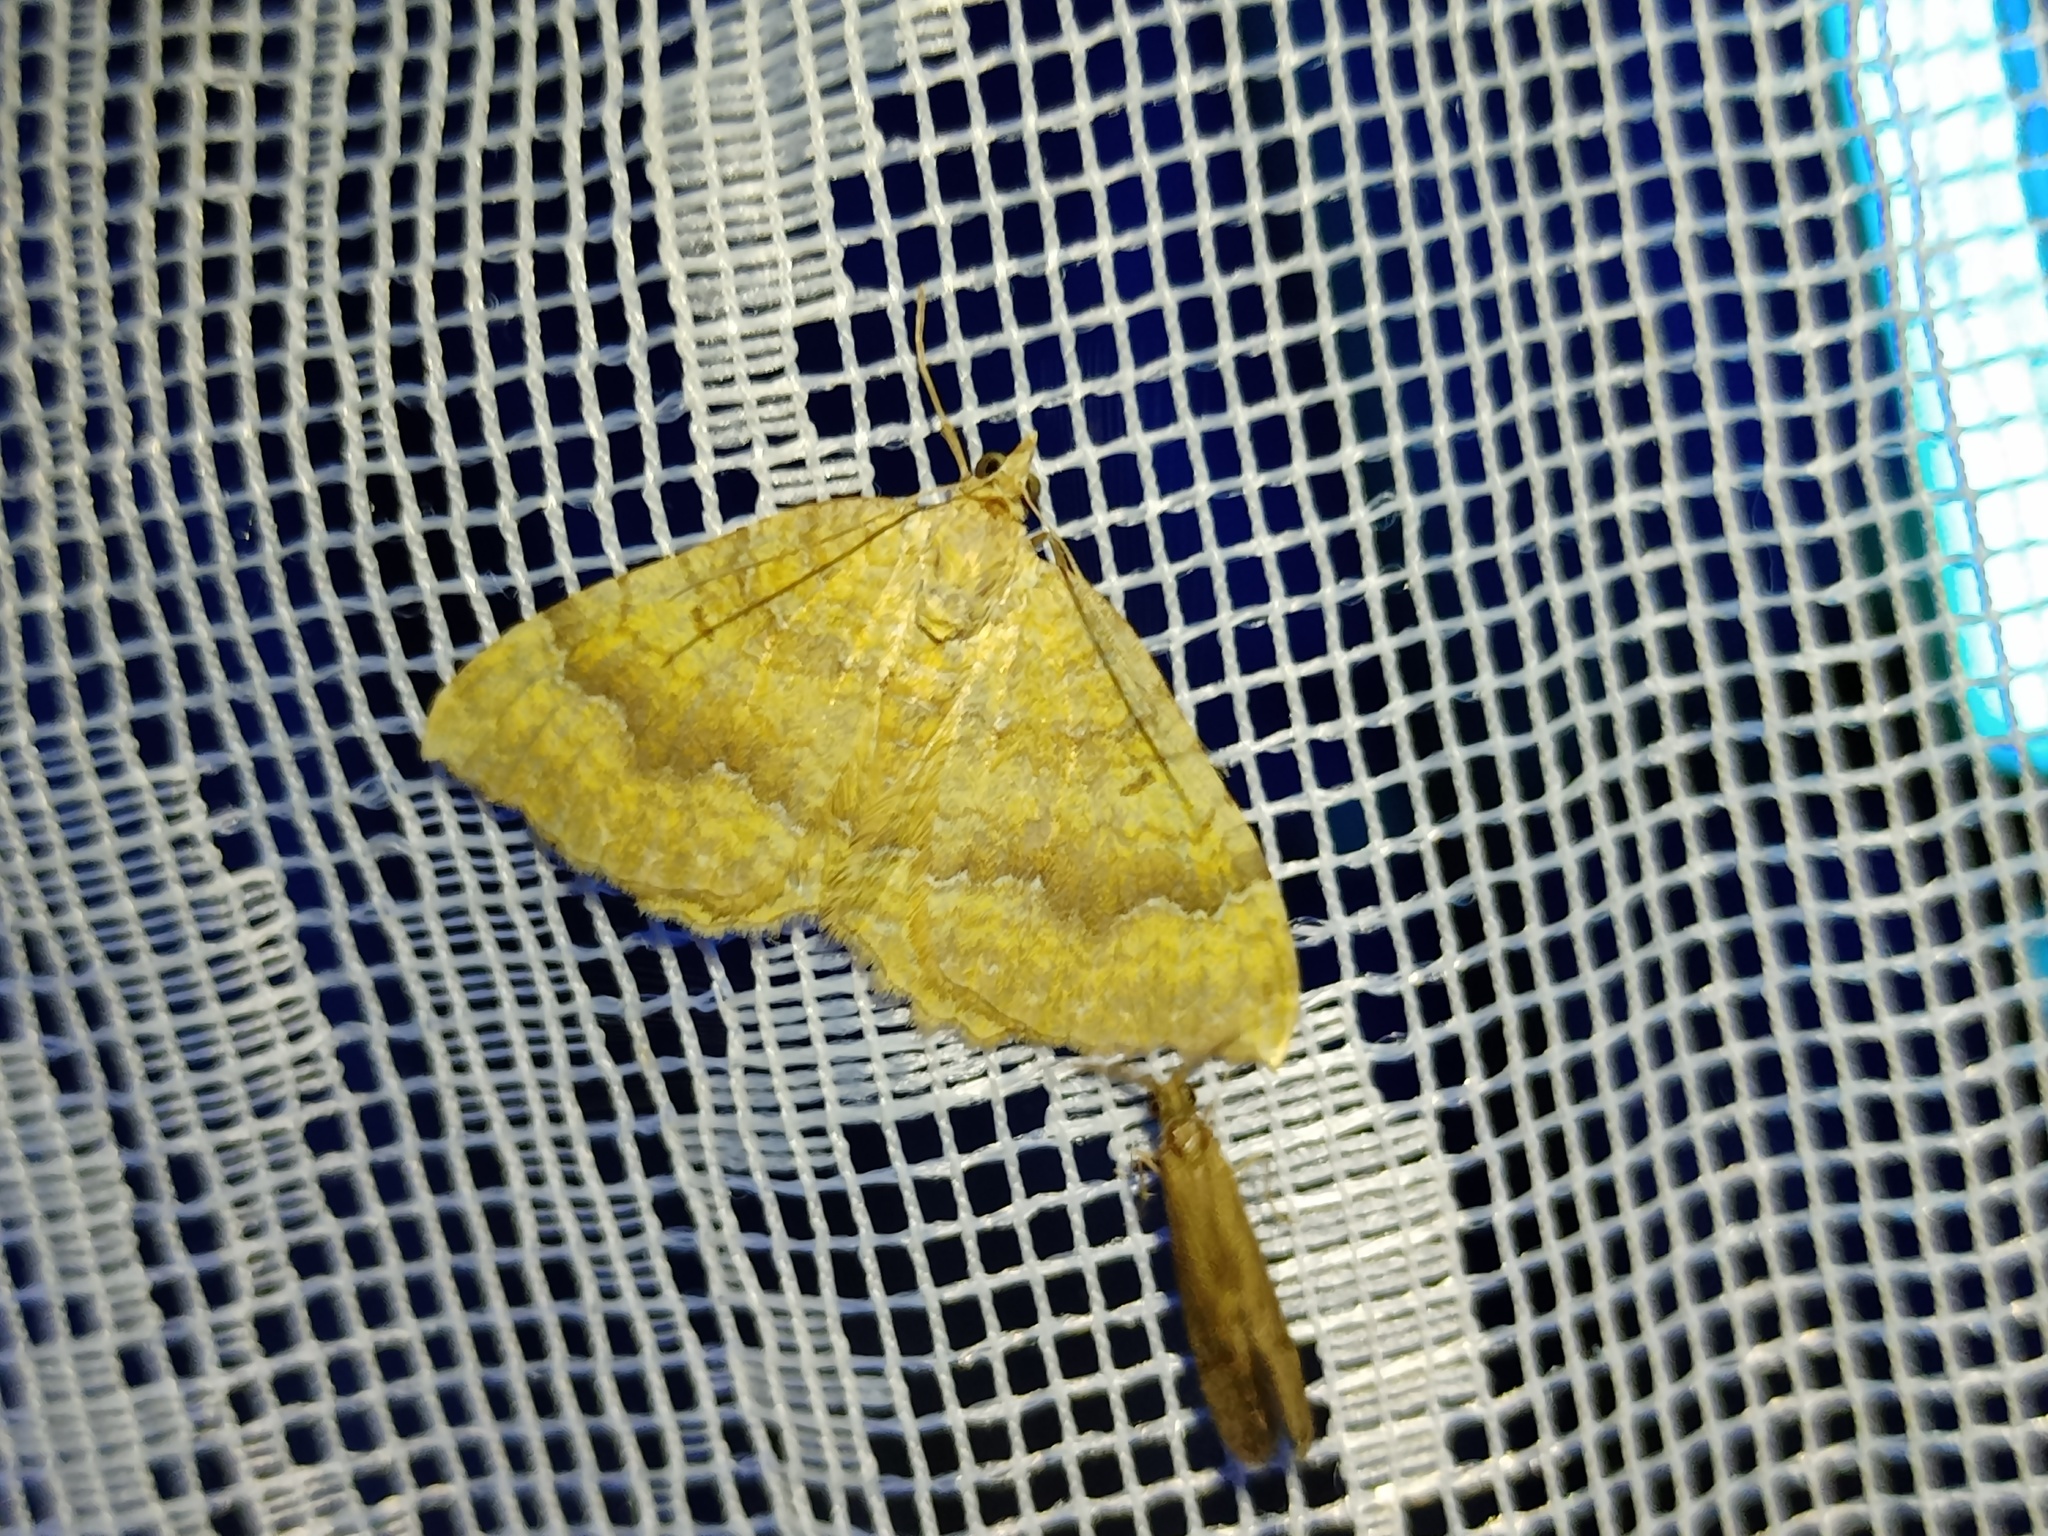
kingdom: Animalia
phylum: Arthropoda
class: Insecta
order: Lepidoptera
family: Geometridae
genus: Camptogramma
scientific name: Camptogramma bilineata
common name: Yellow shell
